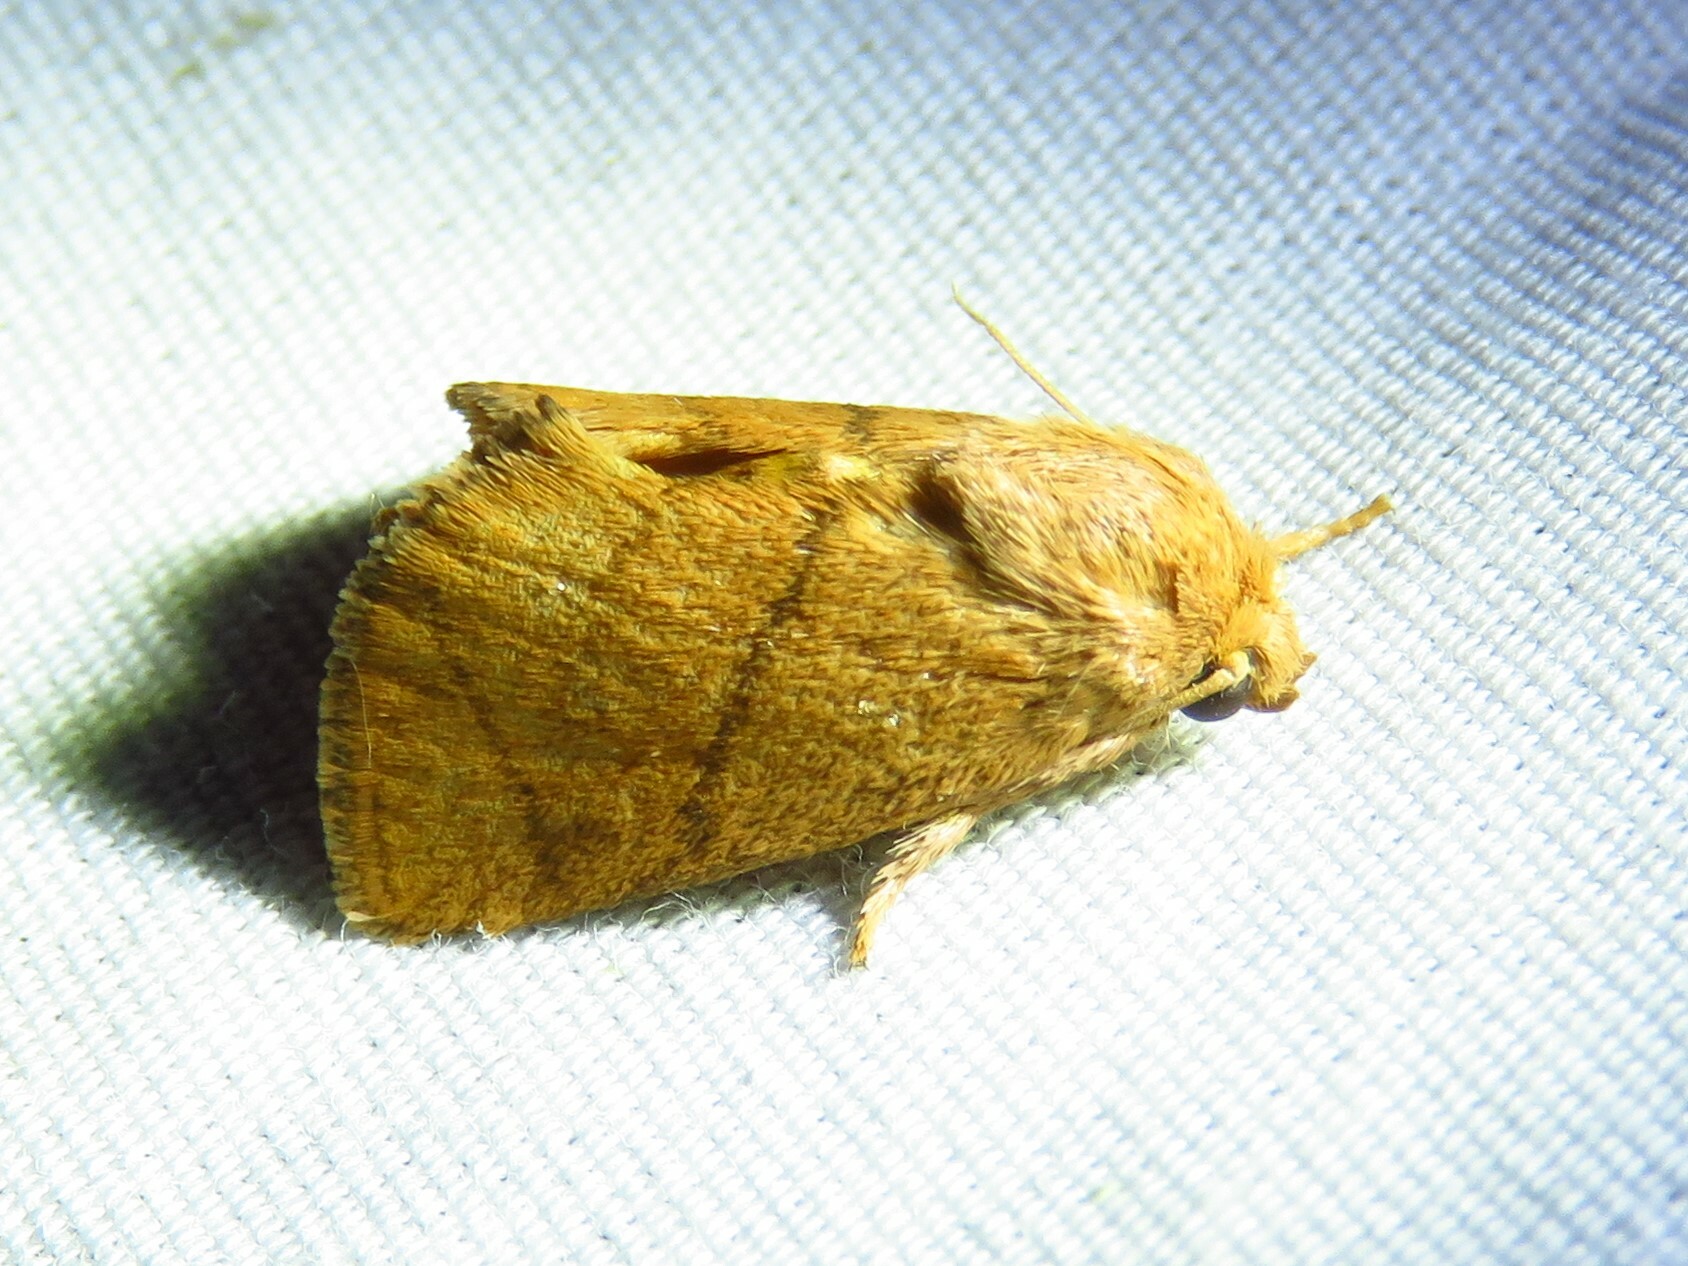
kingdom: Animalia
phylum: Arthropoda
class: Insecta
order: Lepidoptera
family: Limacodidae
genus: Apoda
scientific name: Apoda y-inversa
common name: Yellow-collared slug moth
